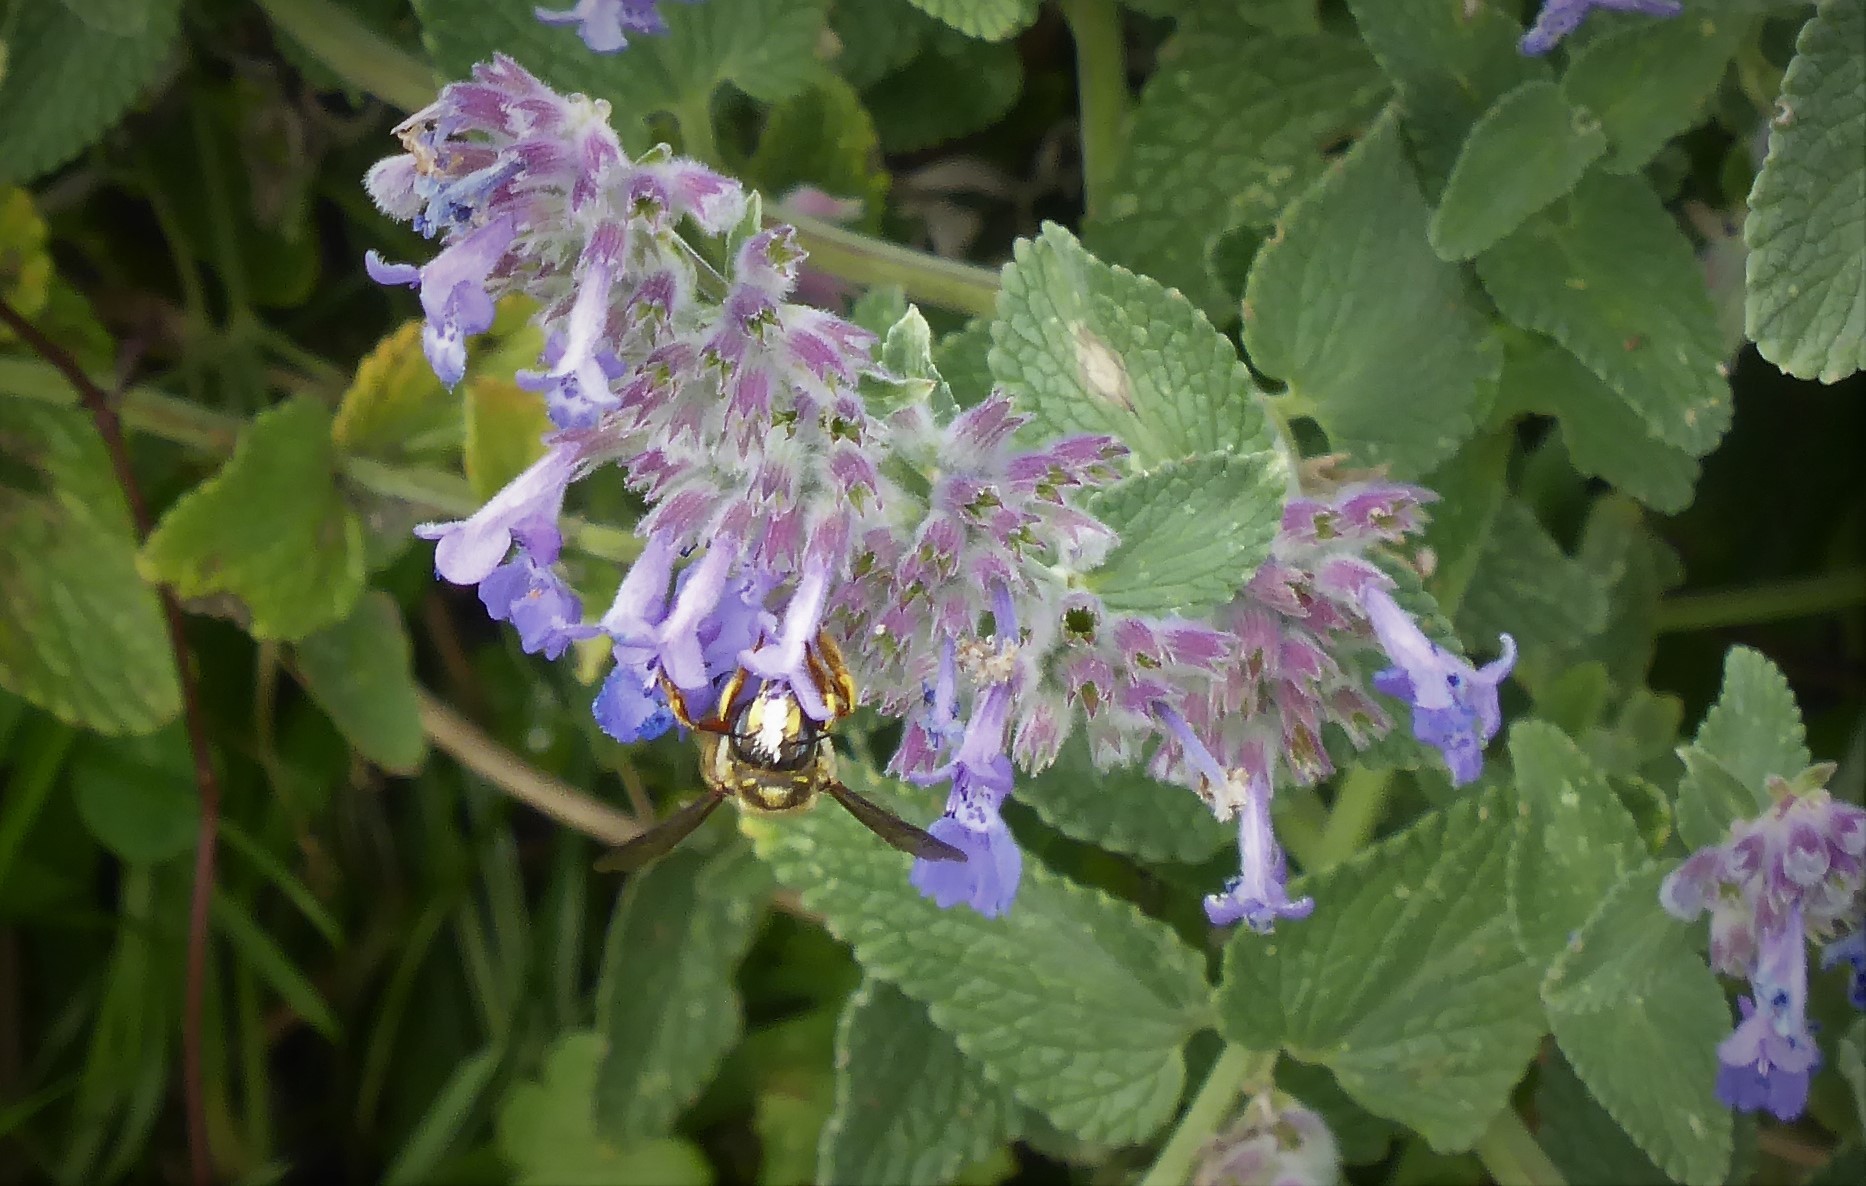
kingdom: Animalia
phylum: Arthropoda
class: Insecta
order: Hymenoptera
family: Megachilidae
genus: Anthidium
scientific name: Anthidium manicatum
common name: Wool carder bee
